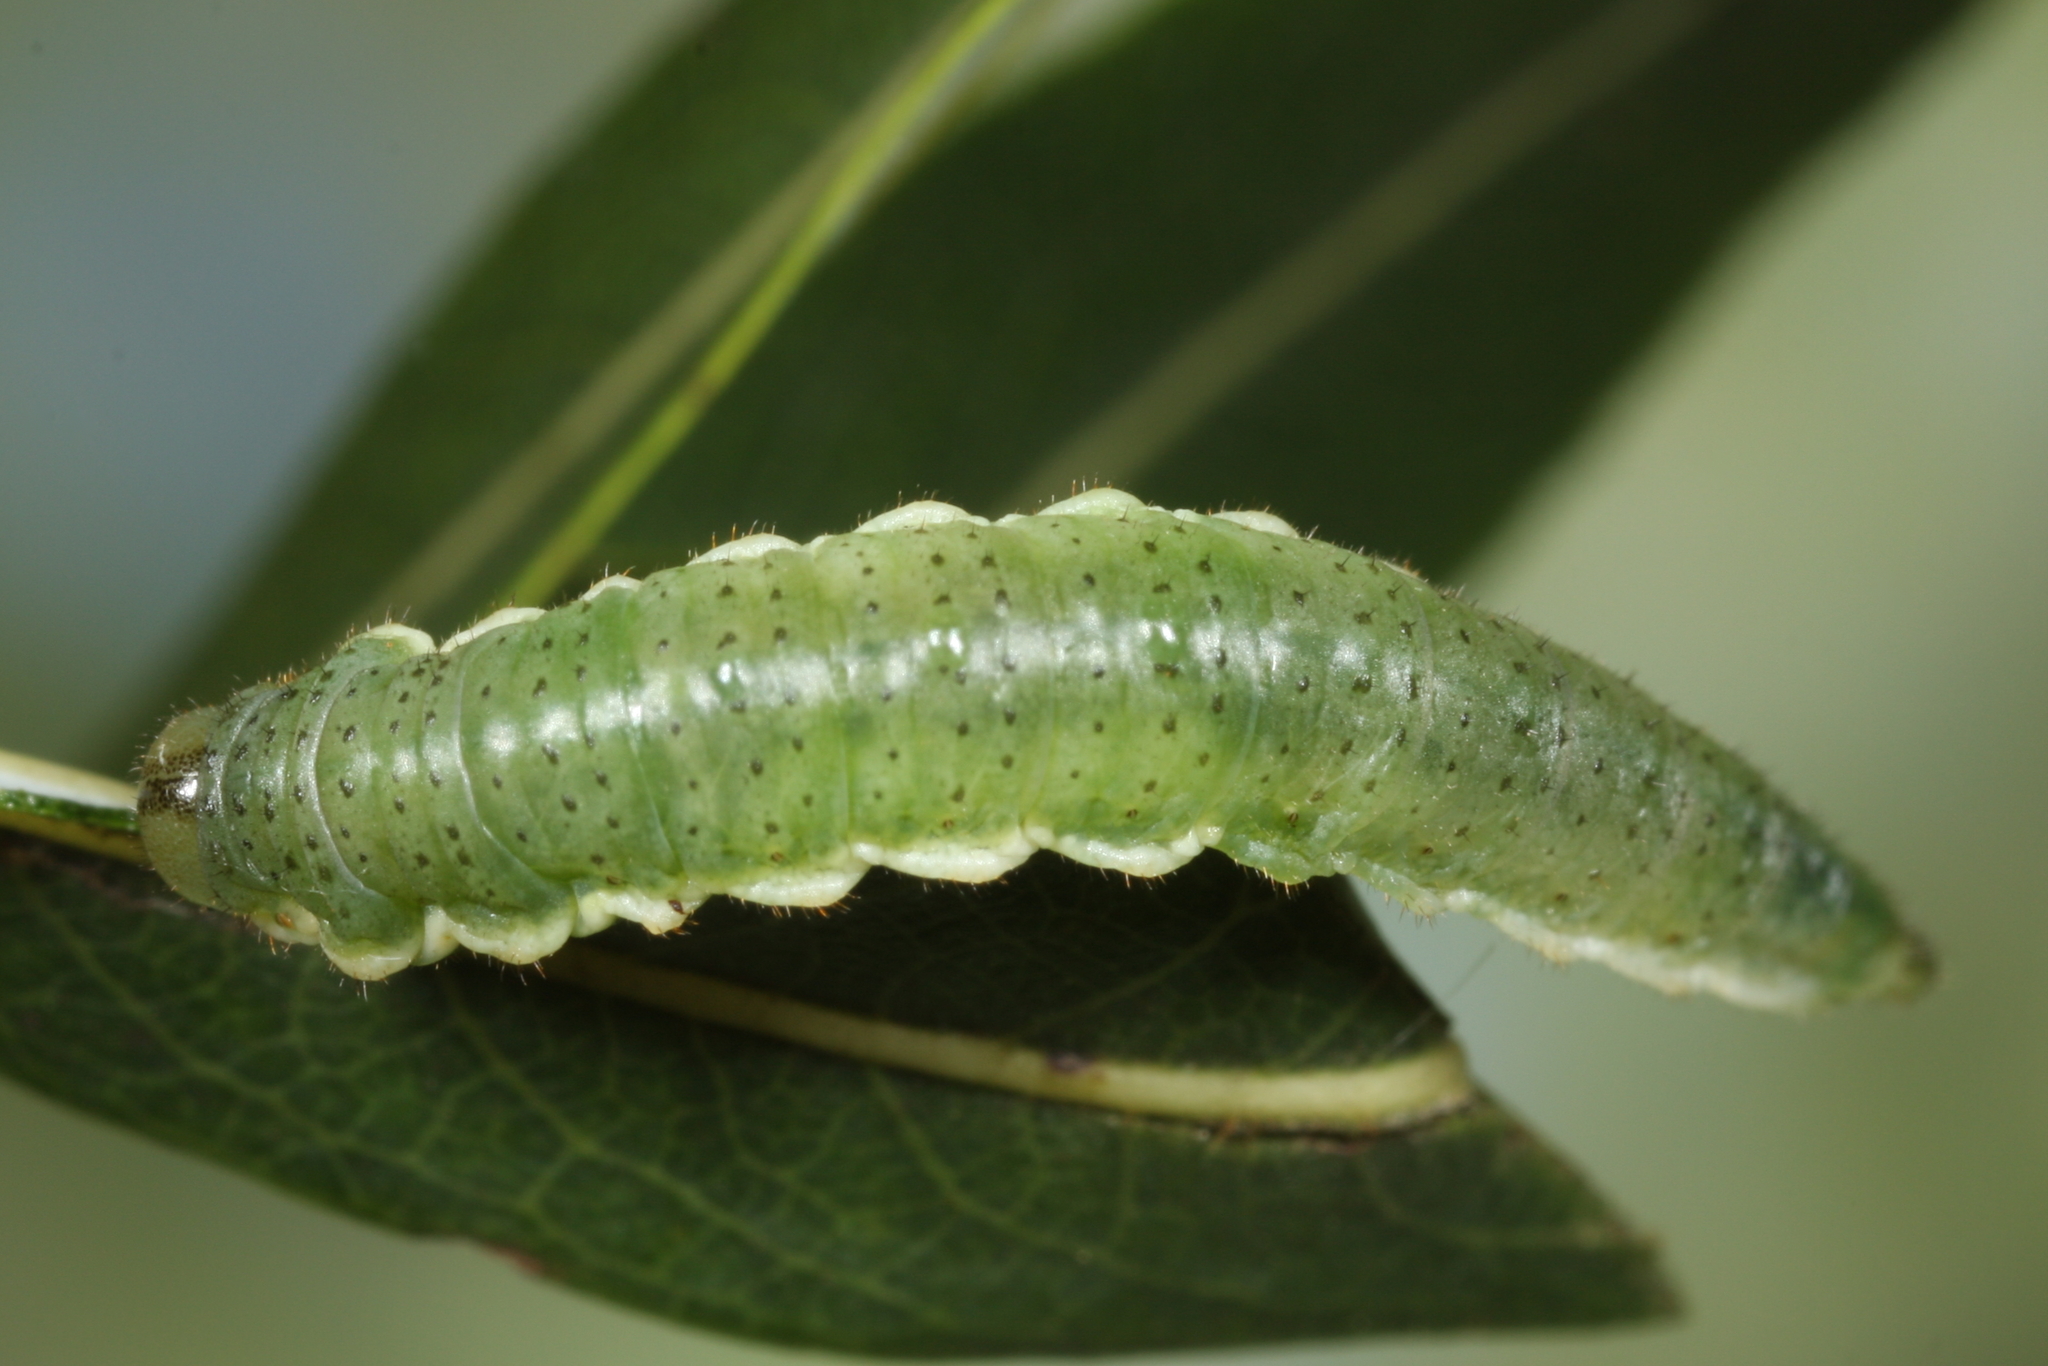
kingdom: Animalia
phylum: Arthropoda
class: Insecta
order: Hymenoptera
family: Argidae
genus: Arge
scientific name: Arge enodis
